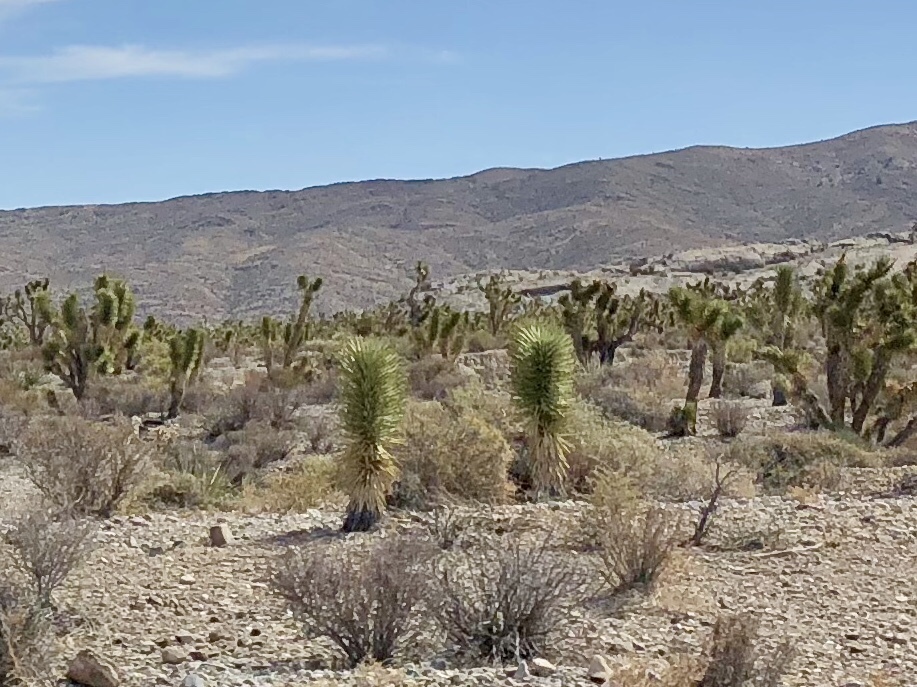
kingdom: Plantae
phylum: Tracheophyta
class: Liliopsida
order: Asparagales
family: Asparagaceae
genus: Yucca
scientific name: Yucca brevifolia
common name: Joshua tree
